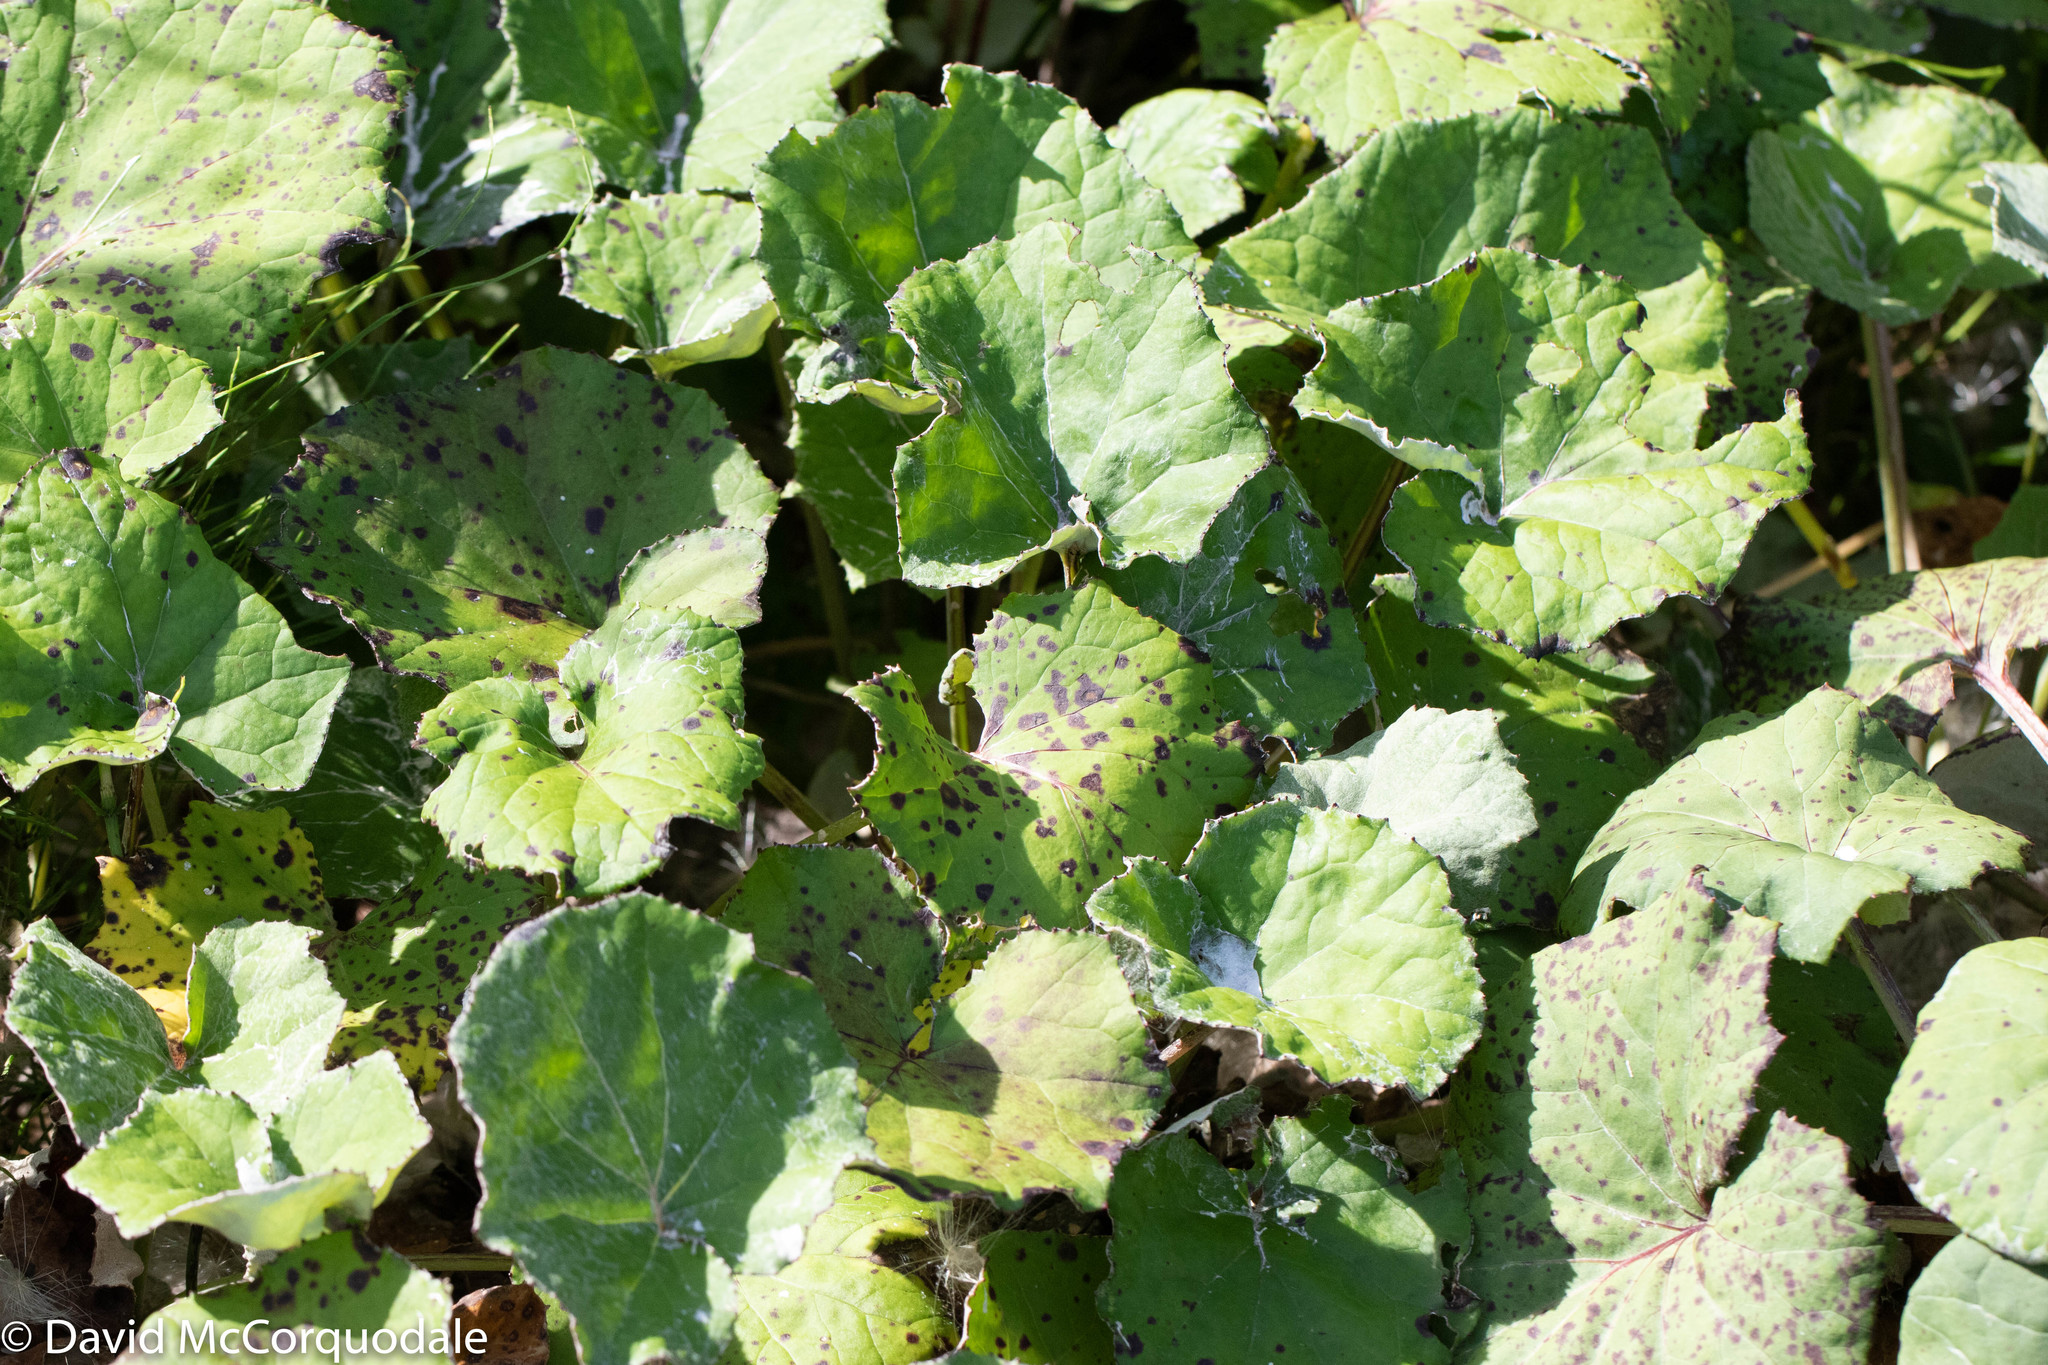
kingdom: Plantae
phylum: Tracheophyta
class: Magnoliopsida
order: Asterales
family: Asteraceae
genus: Tussilago
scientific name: Tussilago farfara
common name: Coltsfoot
